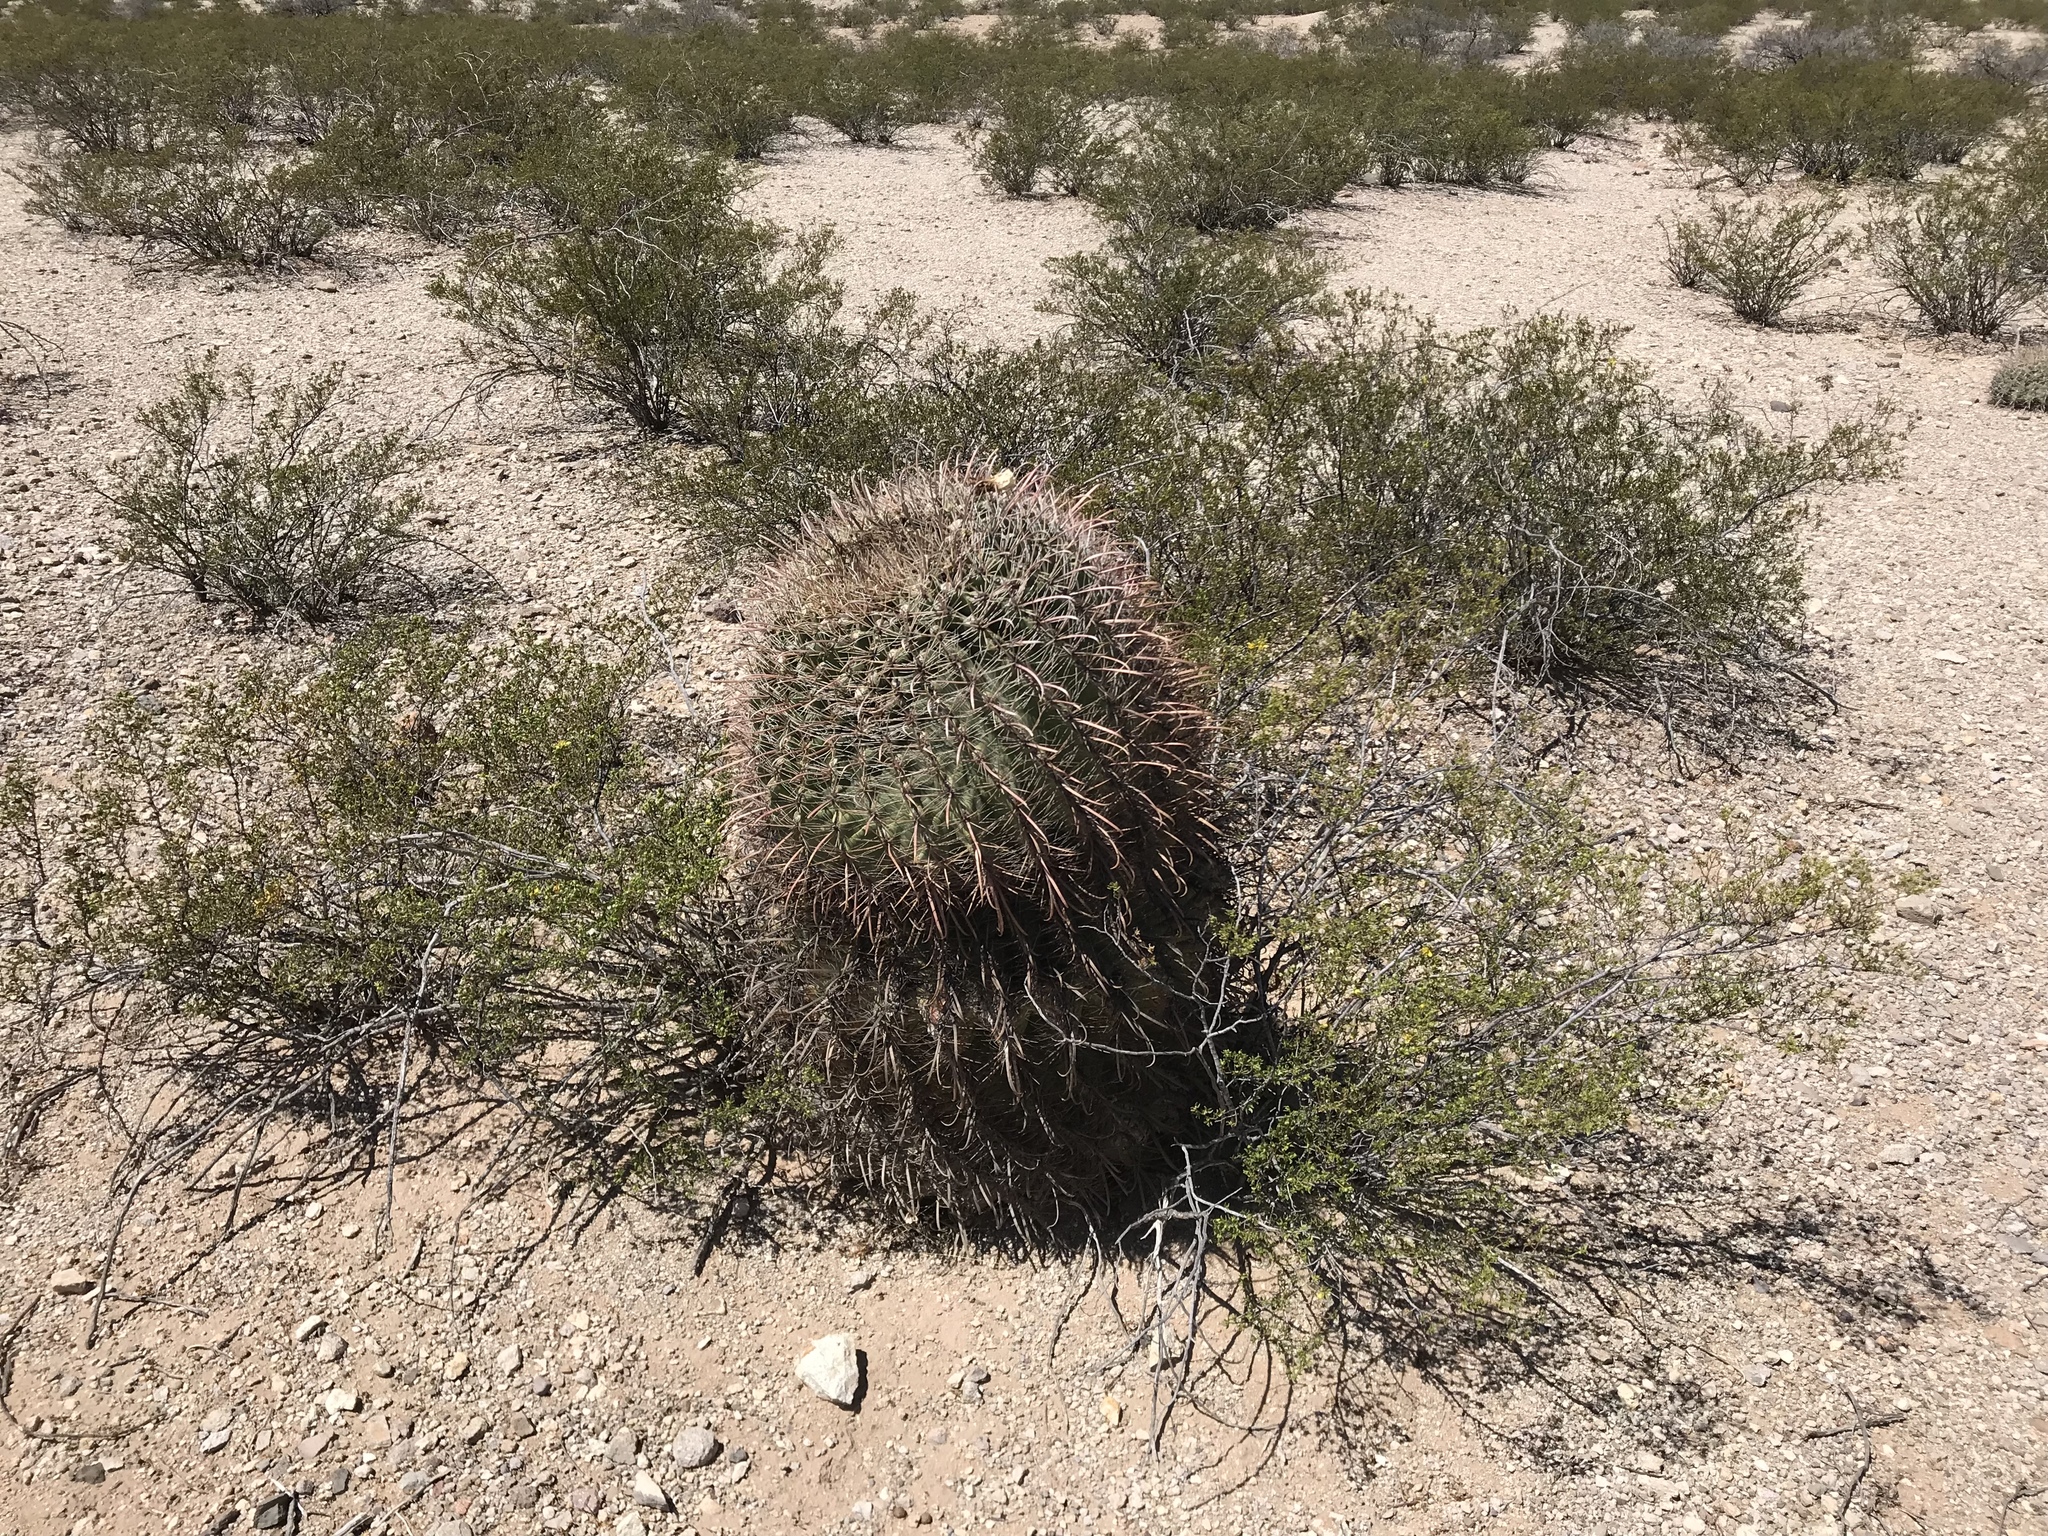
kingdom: Plantae
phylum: Tracheophyta
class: Magnoliopsida
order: Caryophyllales
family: Cactaceae
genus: Ferocactus
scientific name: Ferocactus wislizeni
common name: Candy barrel cactus
